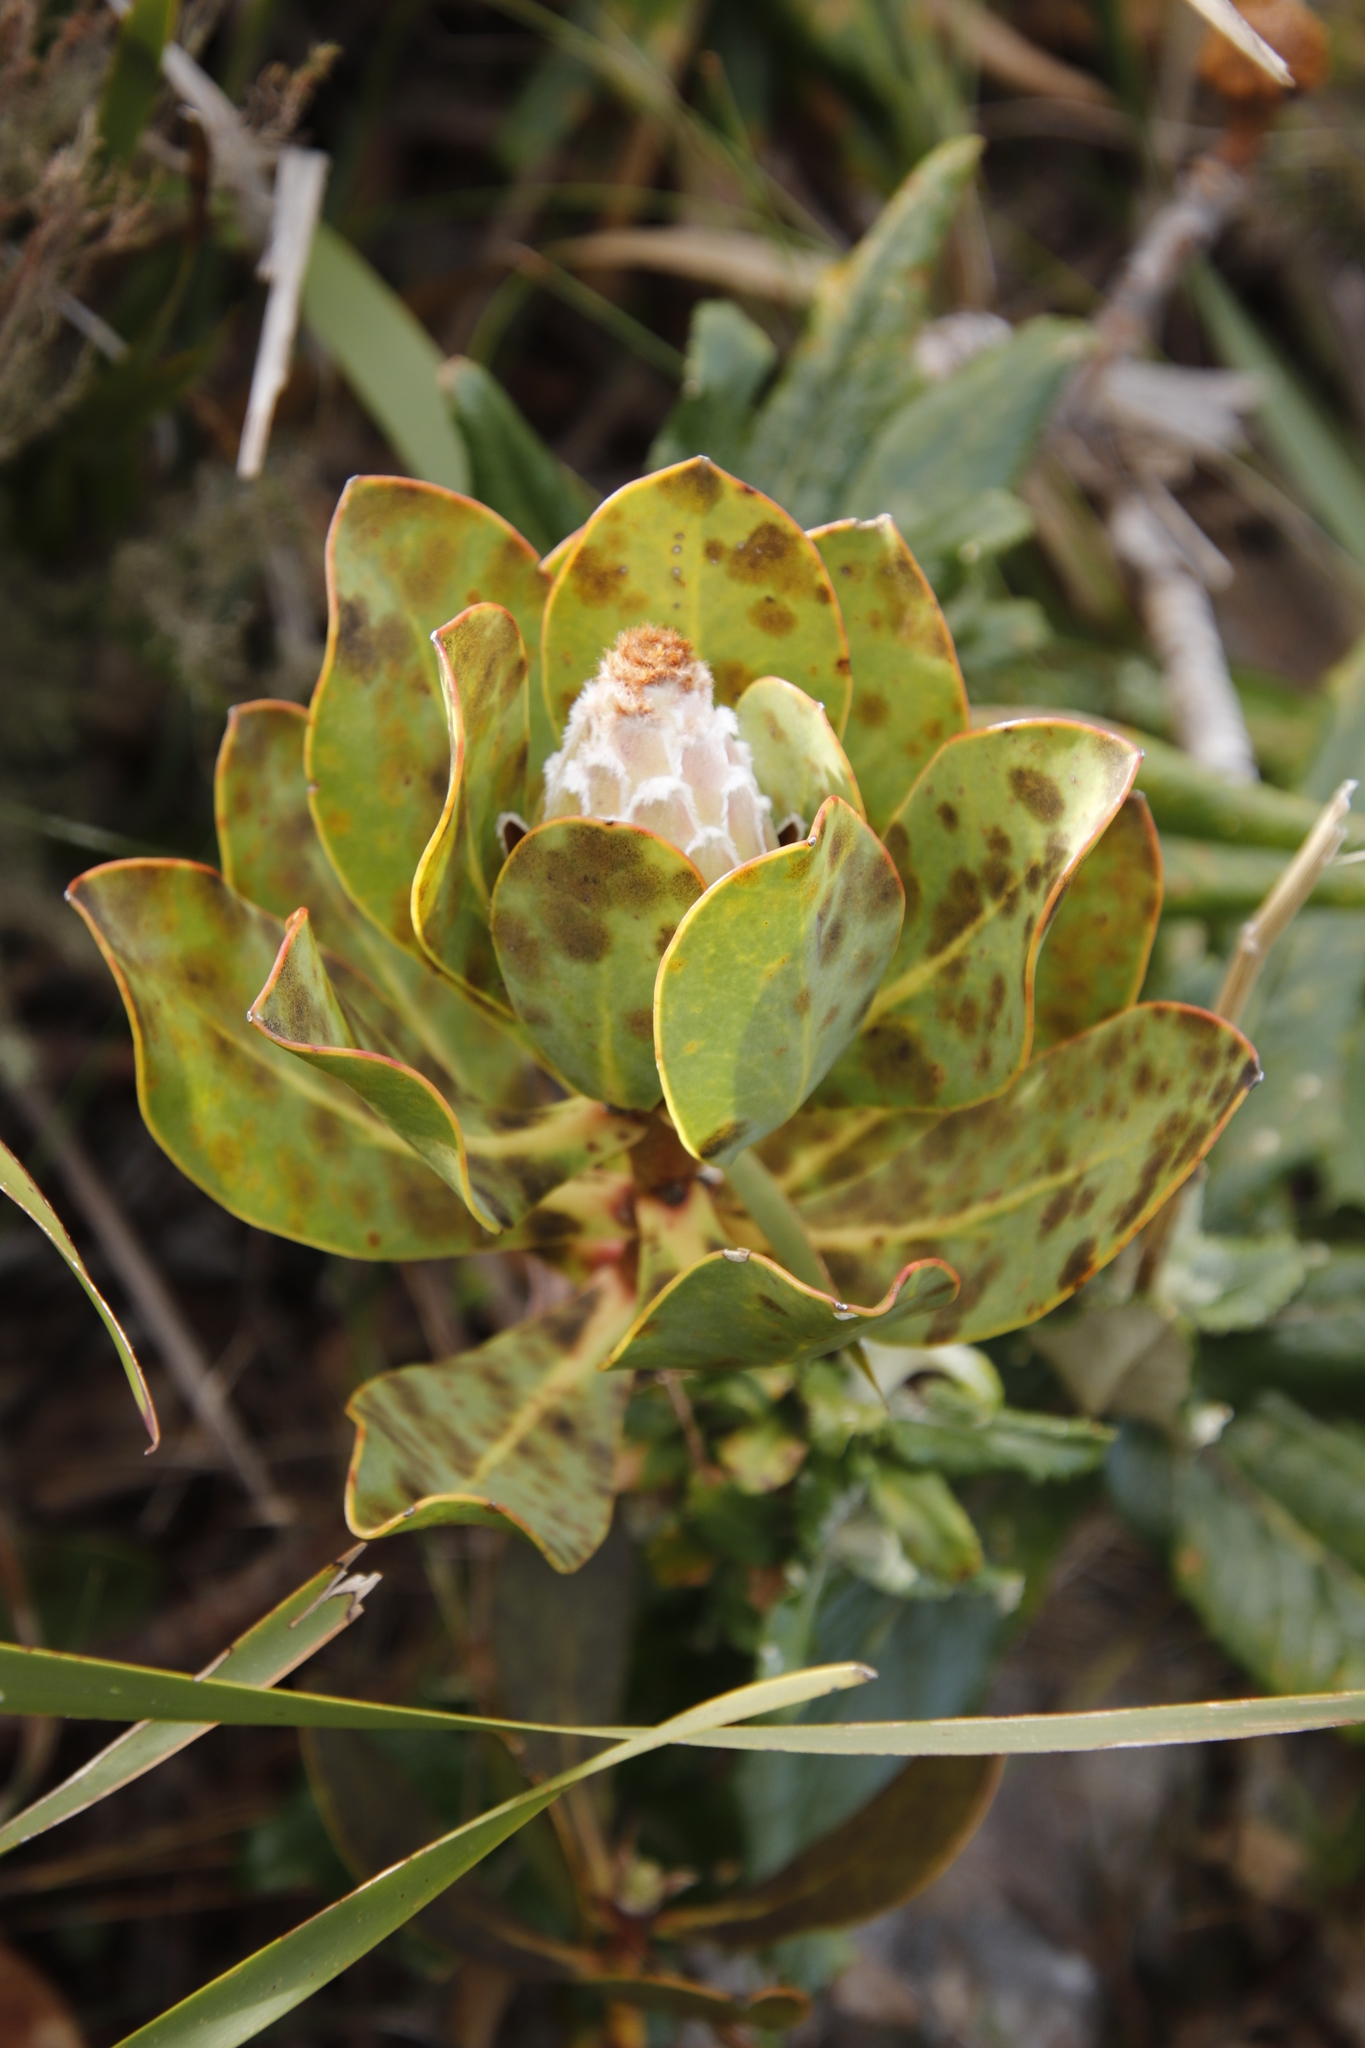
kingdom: Plantae
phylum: Tracheophyta
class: Magnoliopsida
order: Proteales
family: Proteaceae
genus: Protea
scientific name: Protea speciosa
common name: Brown-beard sugarbush
